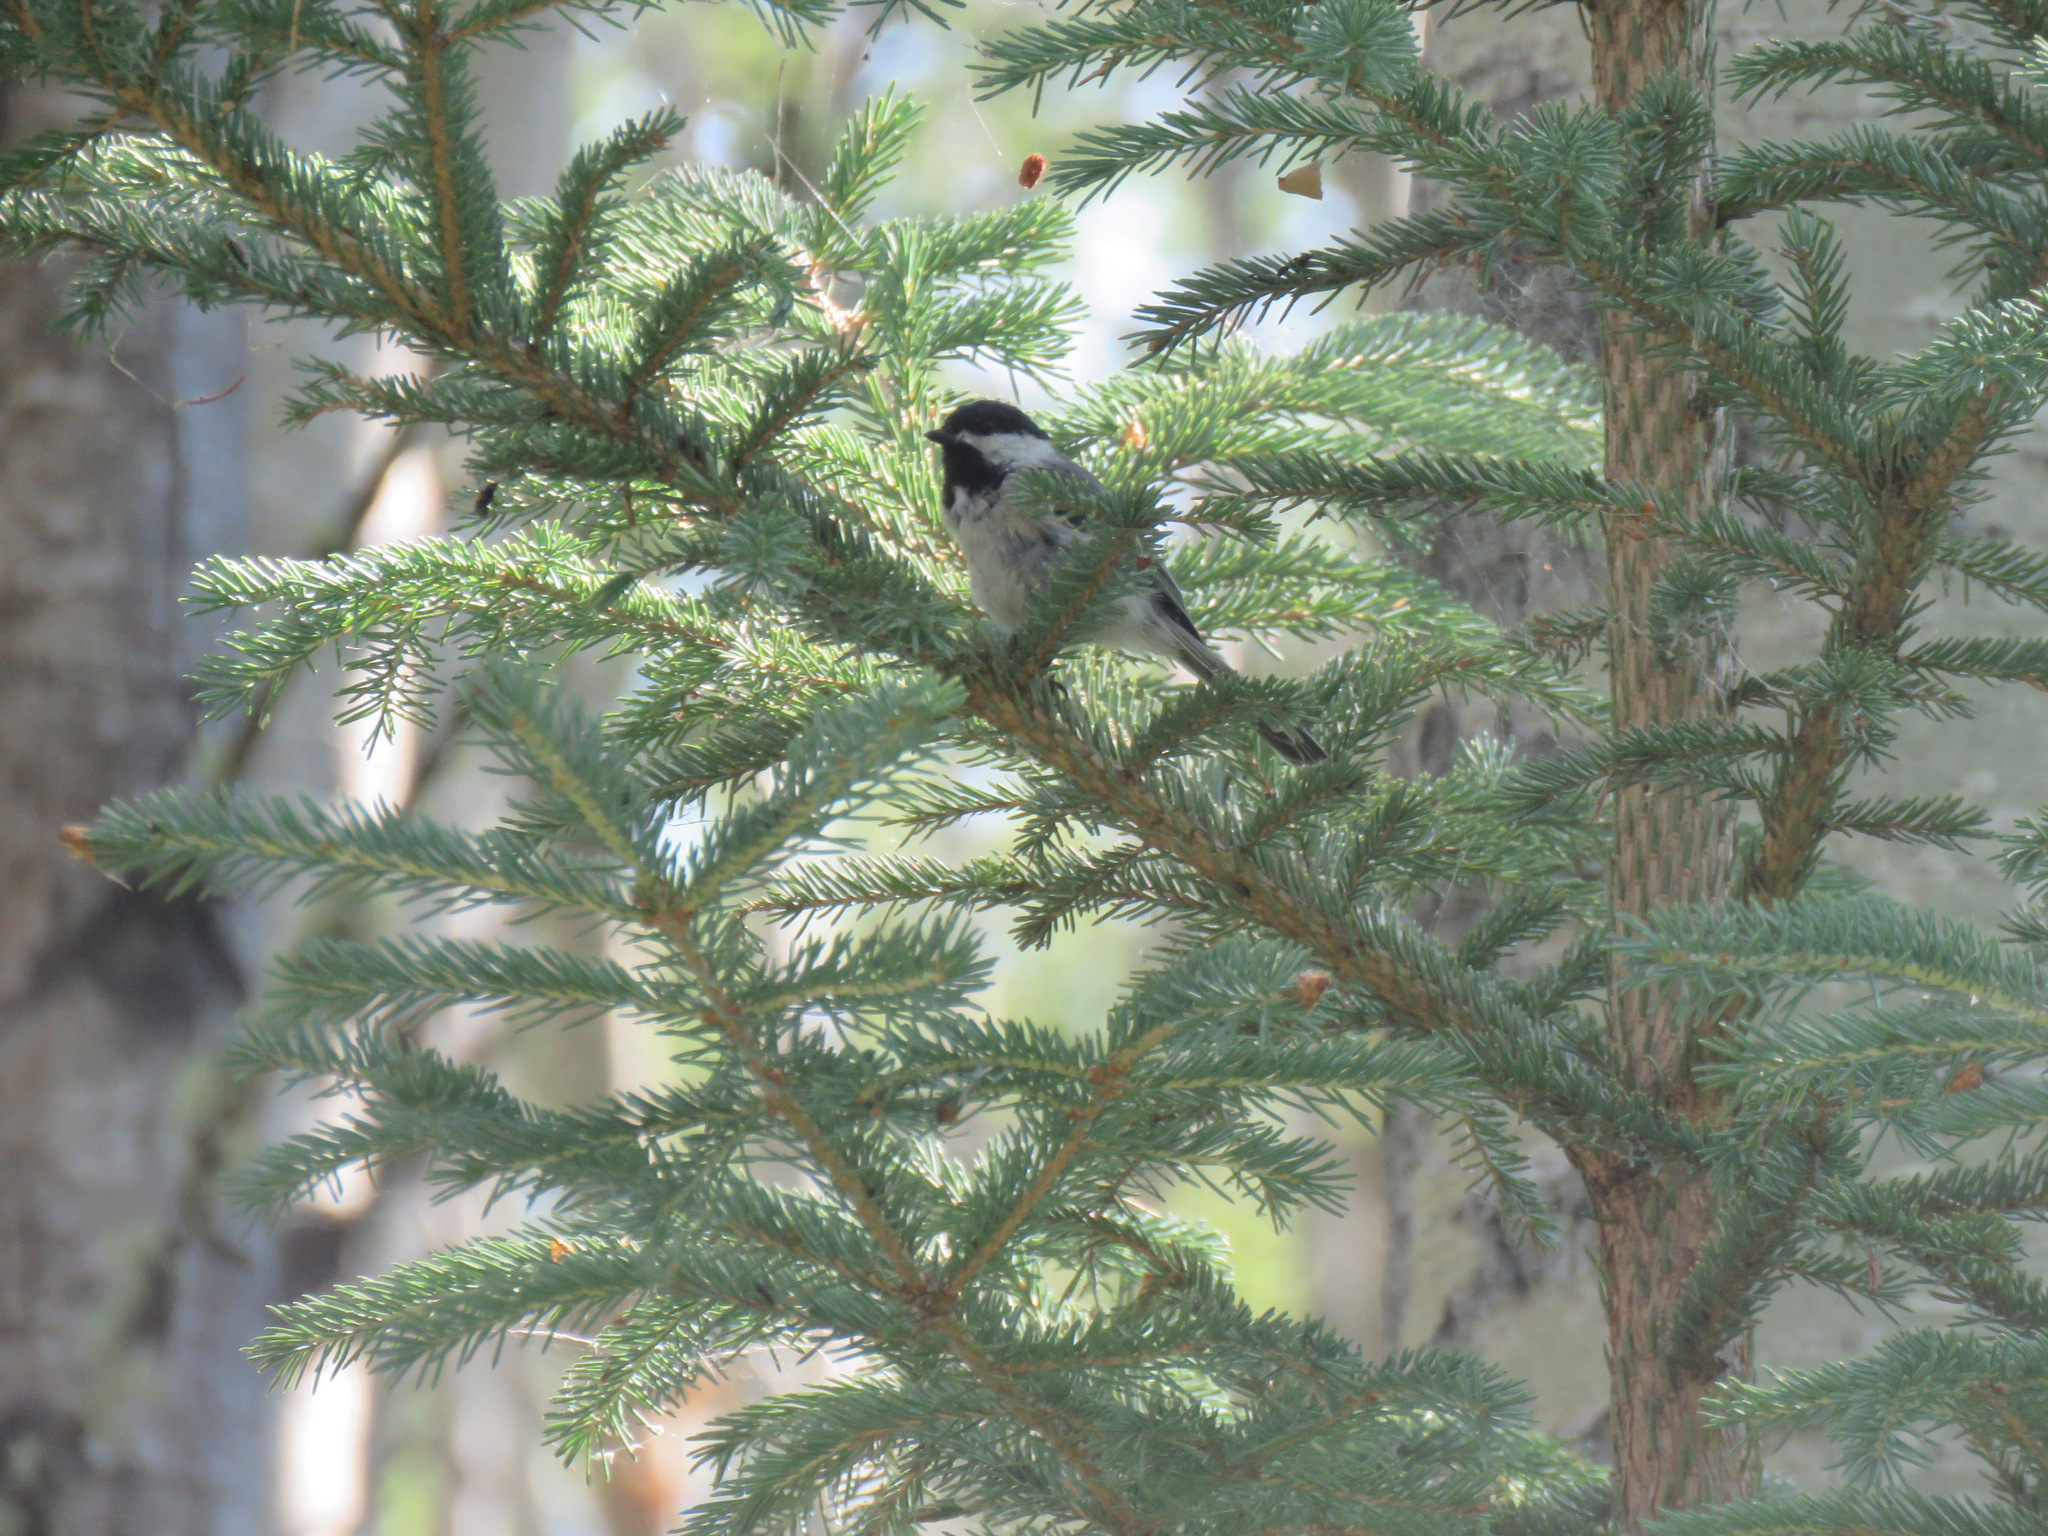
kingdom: Animalia
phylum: Chordata
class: Aves
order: Passeriformes
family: Paridae
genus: Poecile
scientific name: Poecile atricapillus
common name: Black-capped chickadee
